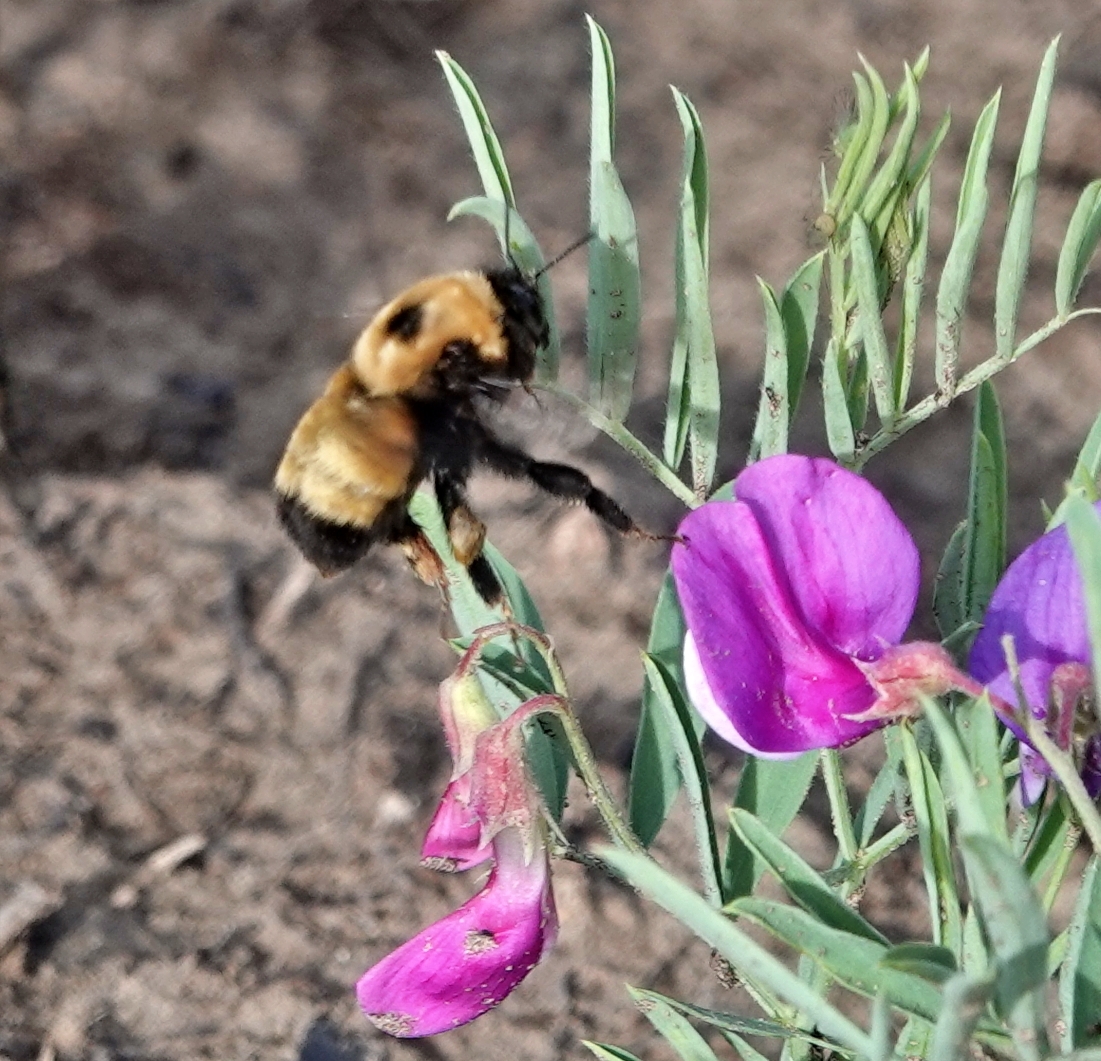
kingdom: Animalia
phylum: Arthropoda
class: Insecta
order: Hymenoptera
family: Apidae
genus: Bombus
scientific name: Bombus nevadensis
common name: Nevada bumble bee
